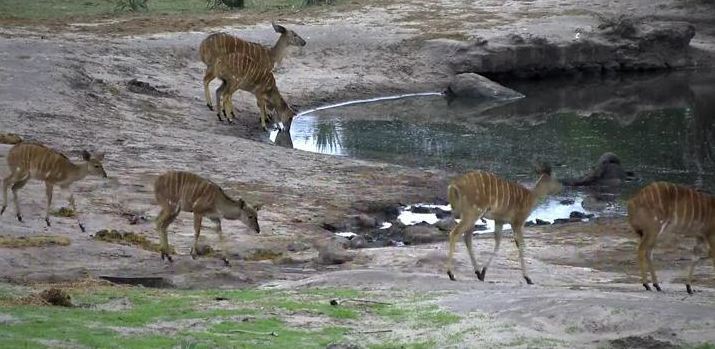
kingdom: Animalia
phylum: Chordata
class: Mammalia
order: Artiodactyla
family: Bovidae
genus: Tragelaphus
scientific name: Tragelaphus angasii
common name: Nyala
